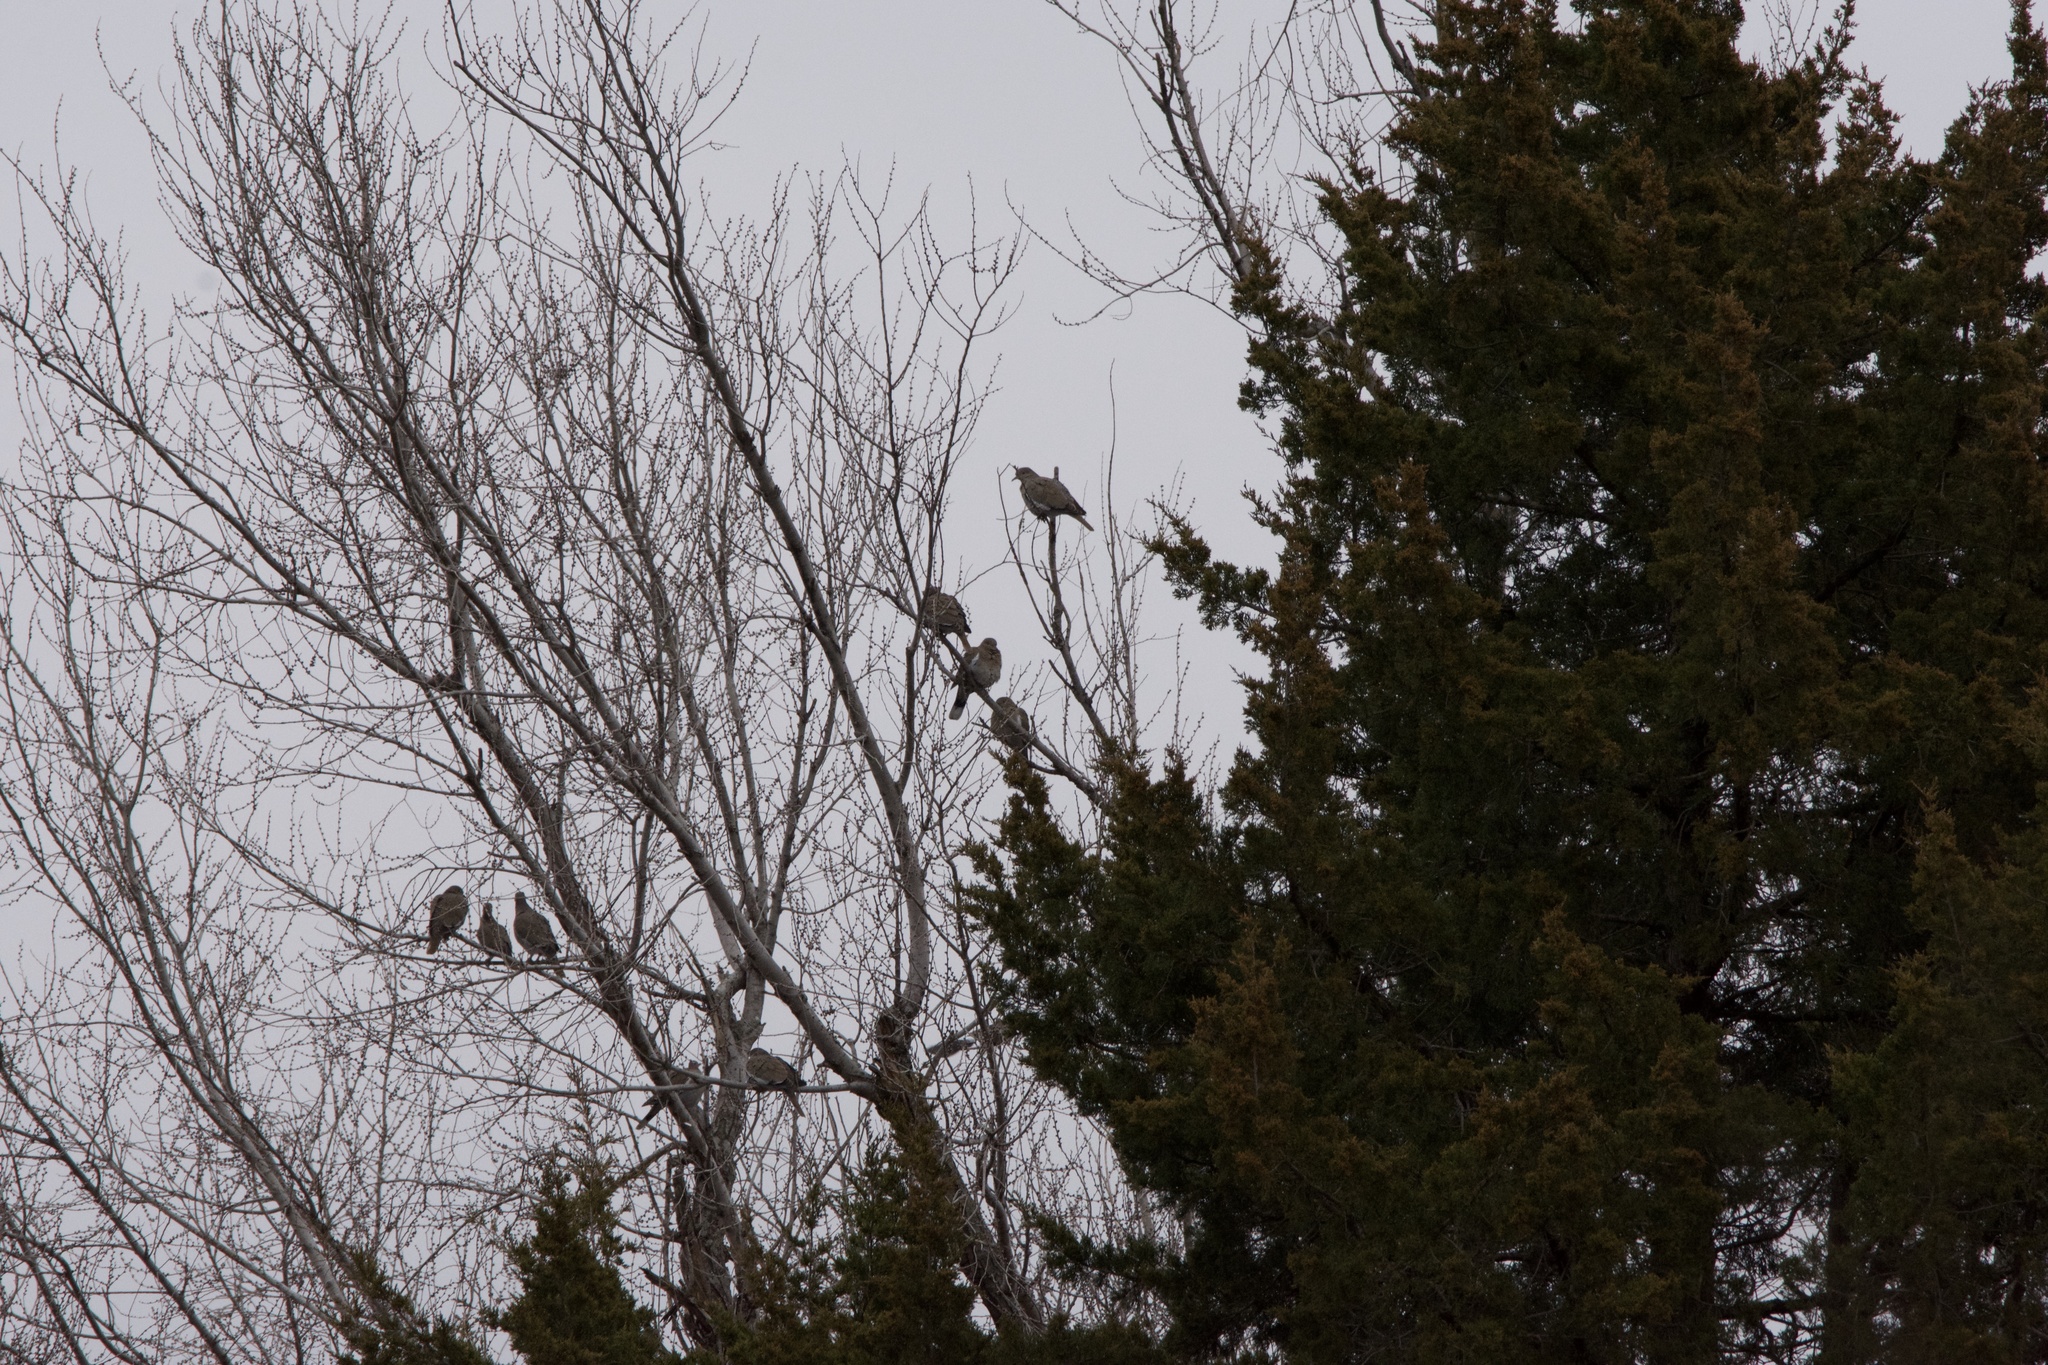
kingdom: Animalia
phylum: Chordata
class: Aves
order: Columbiformes
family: Columbidae
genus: Zenaida
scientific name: Zenaida asiatica
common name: White-winged dove
